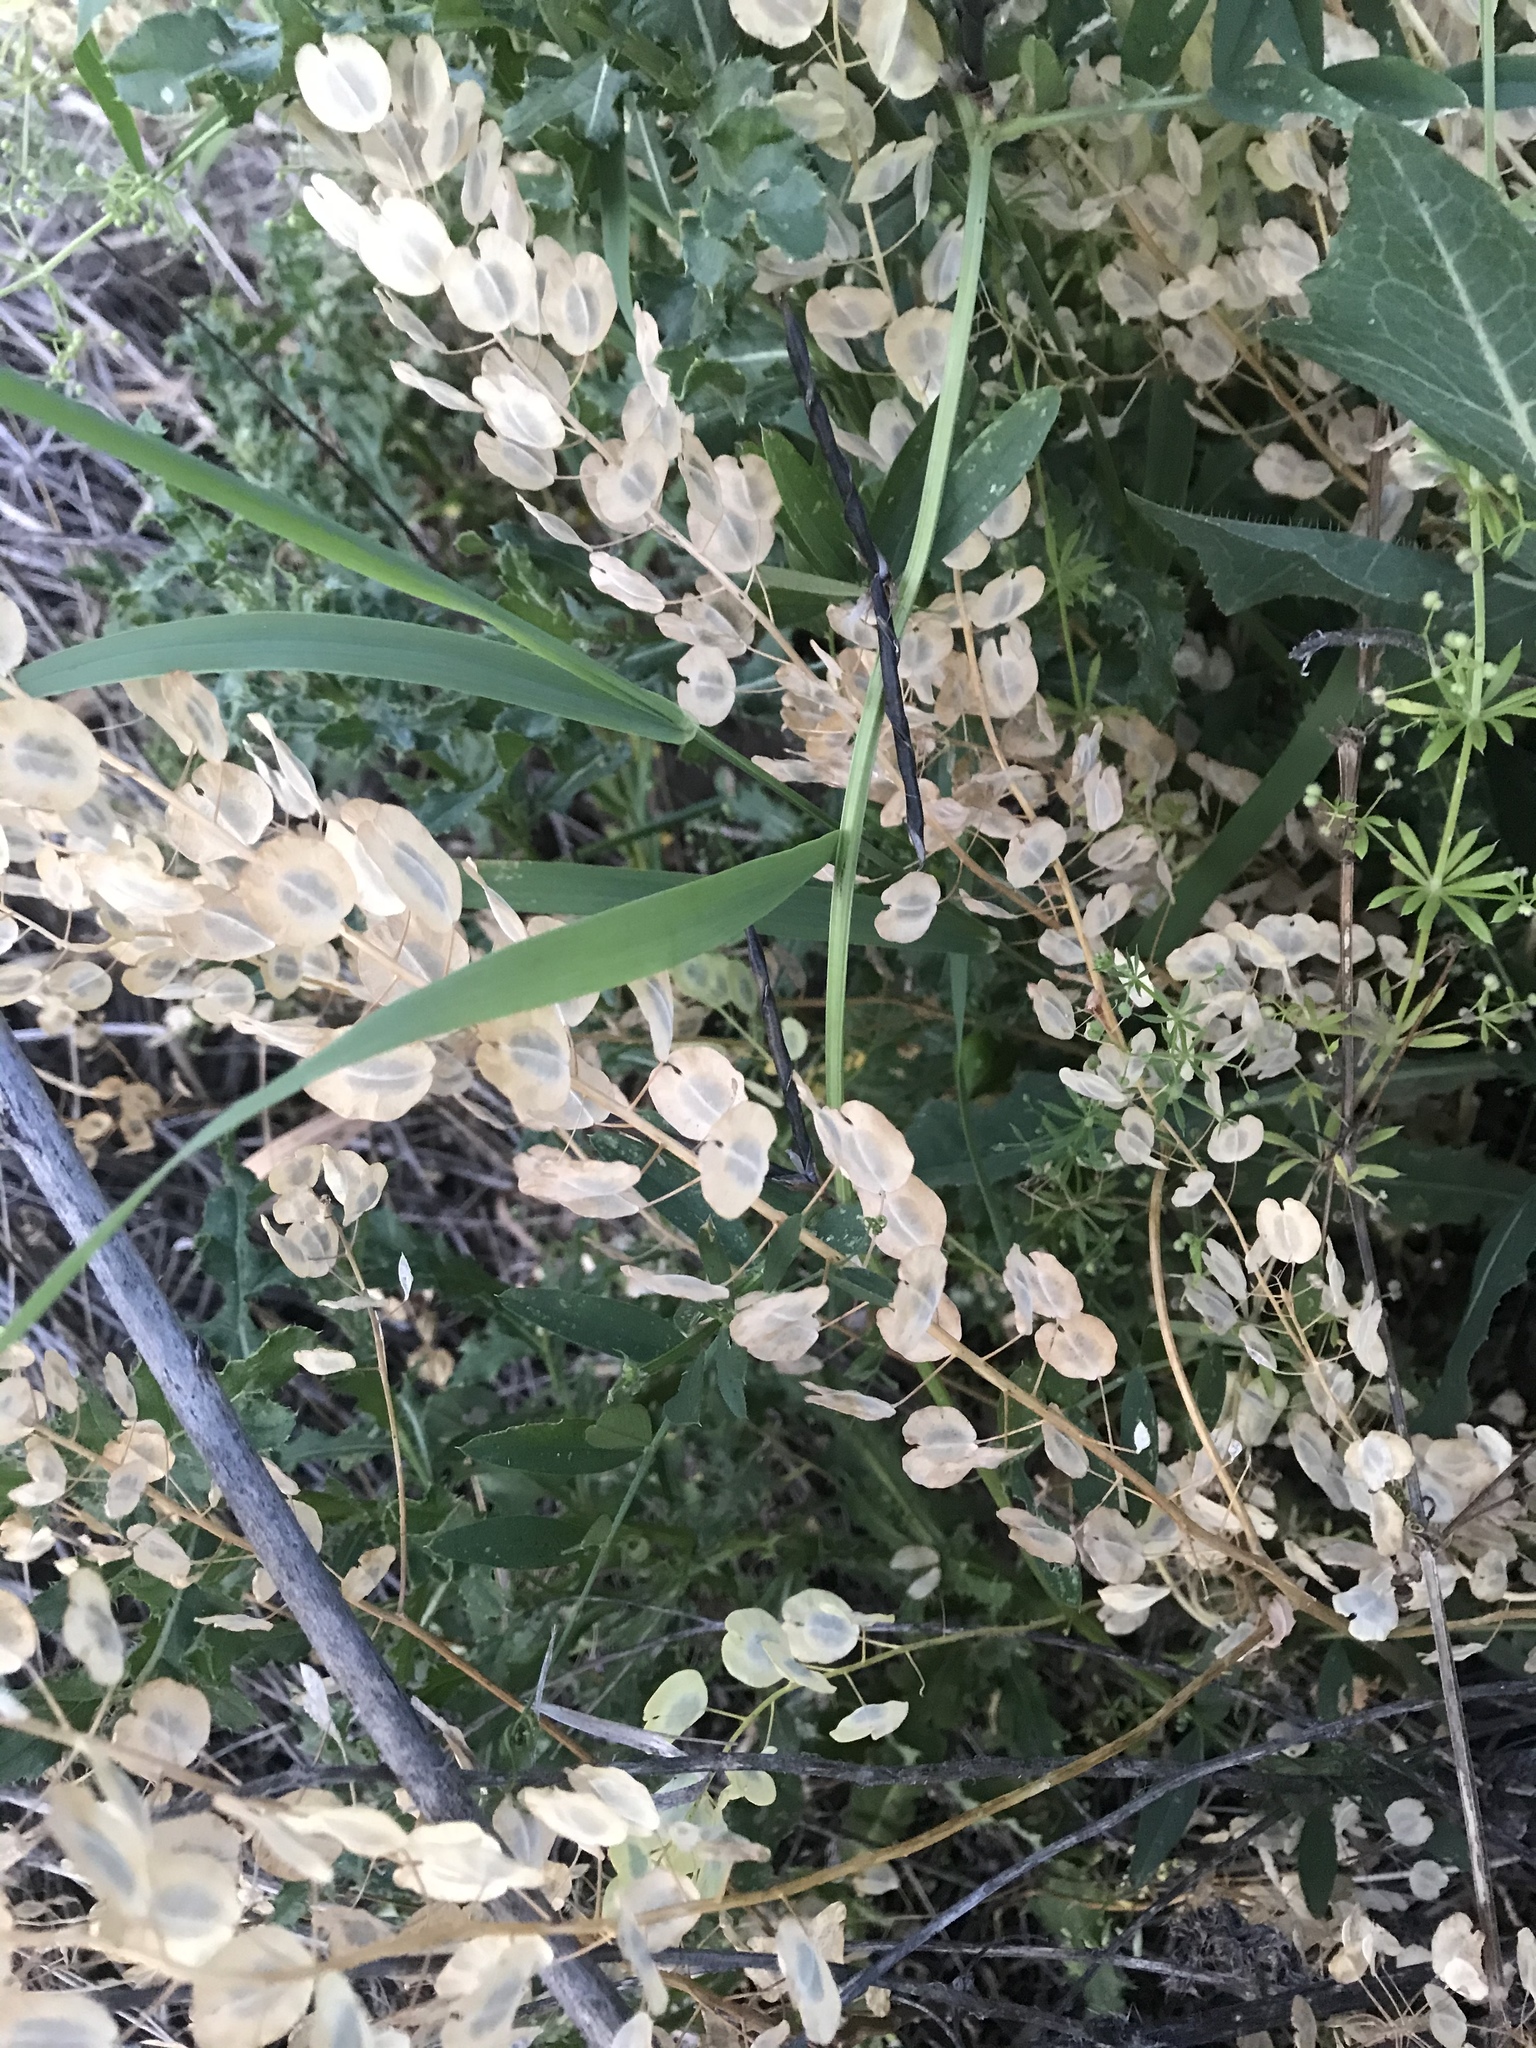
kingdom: Plantae
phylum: Tracheophyta
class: Magnoliopsida
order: Brassicales
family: Brassicaceae
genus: Thlaspi
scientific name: Thlaspi arvense
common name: Field pennycress
